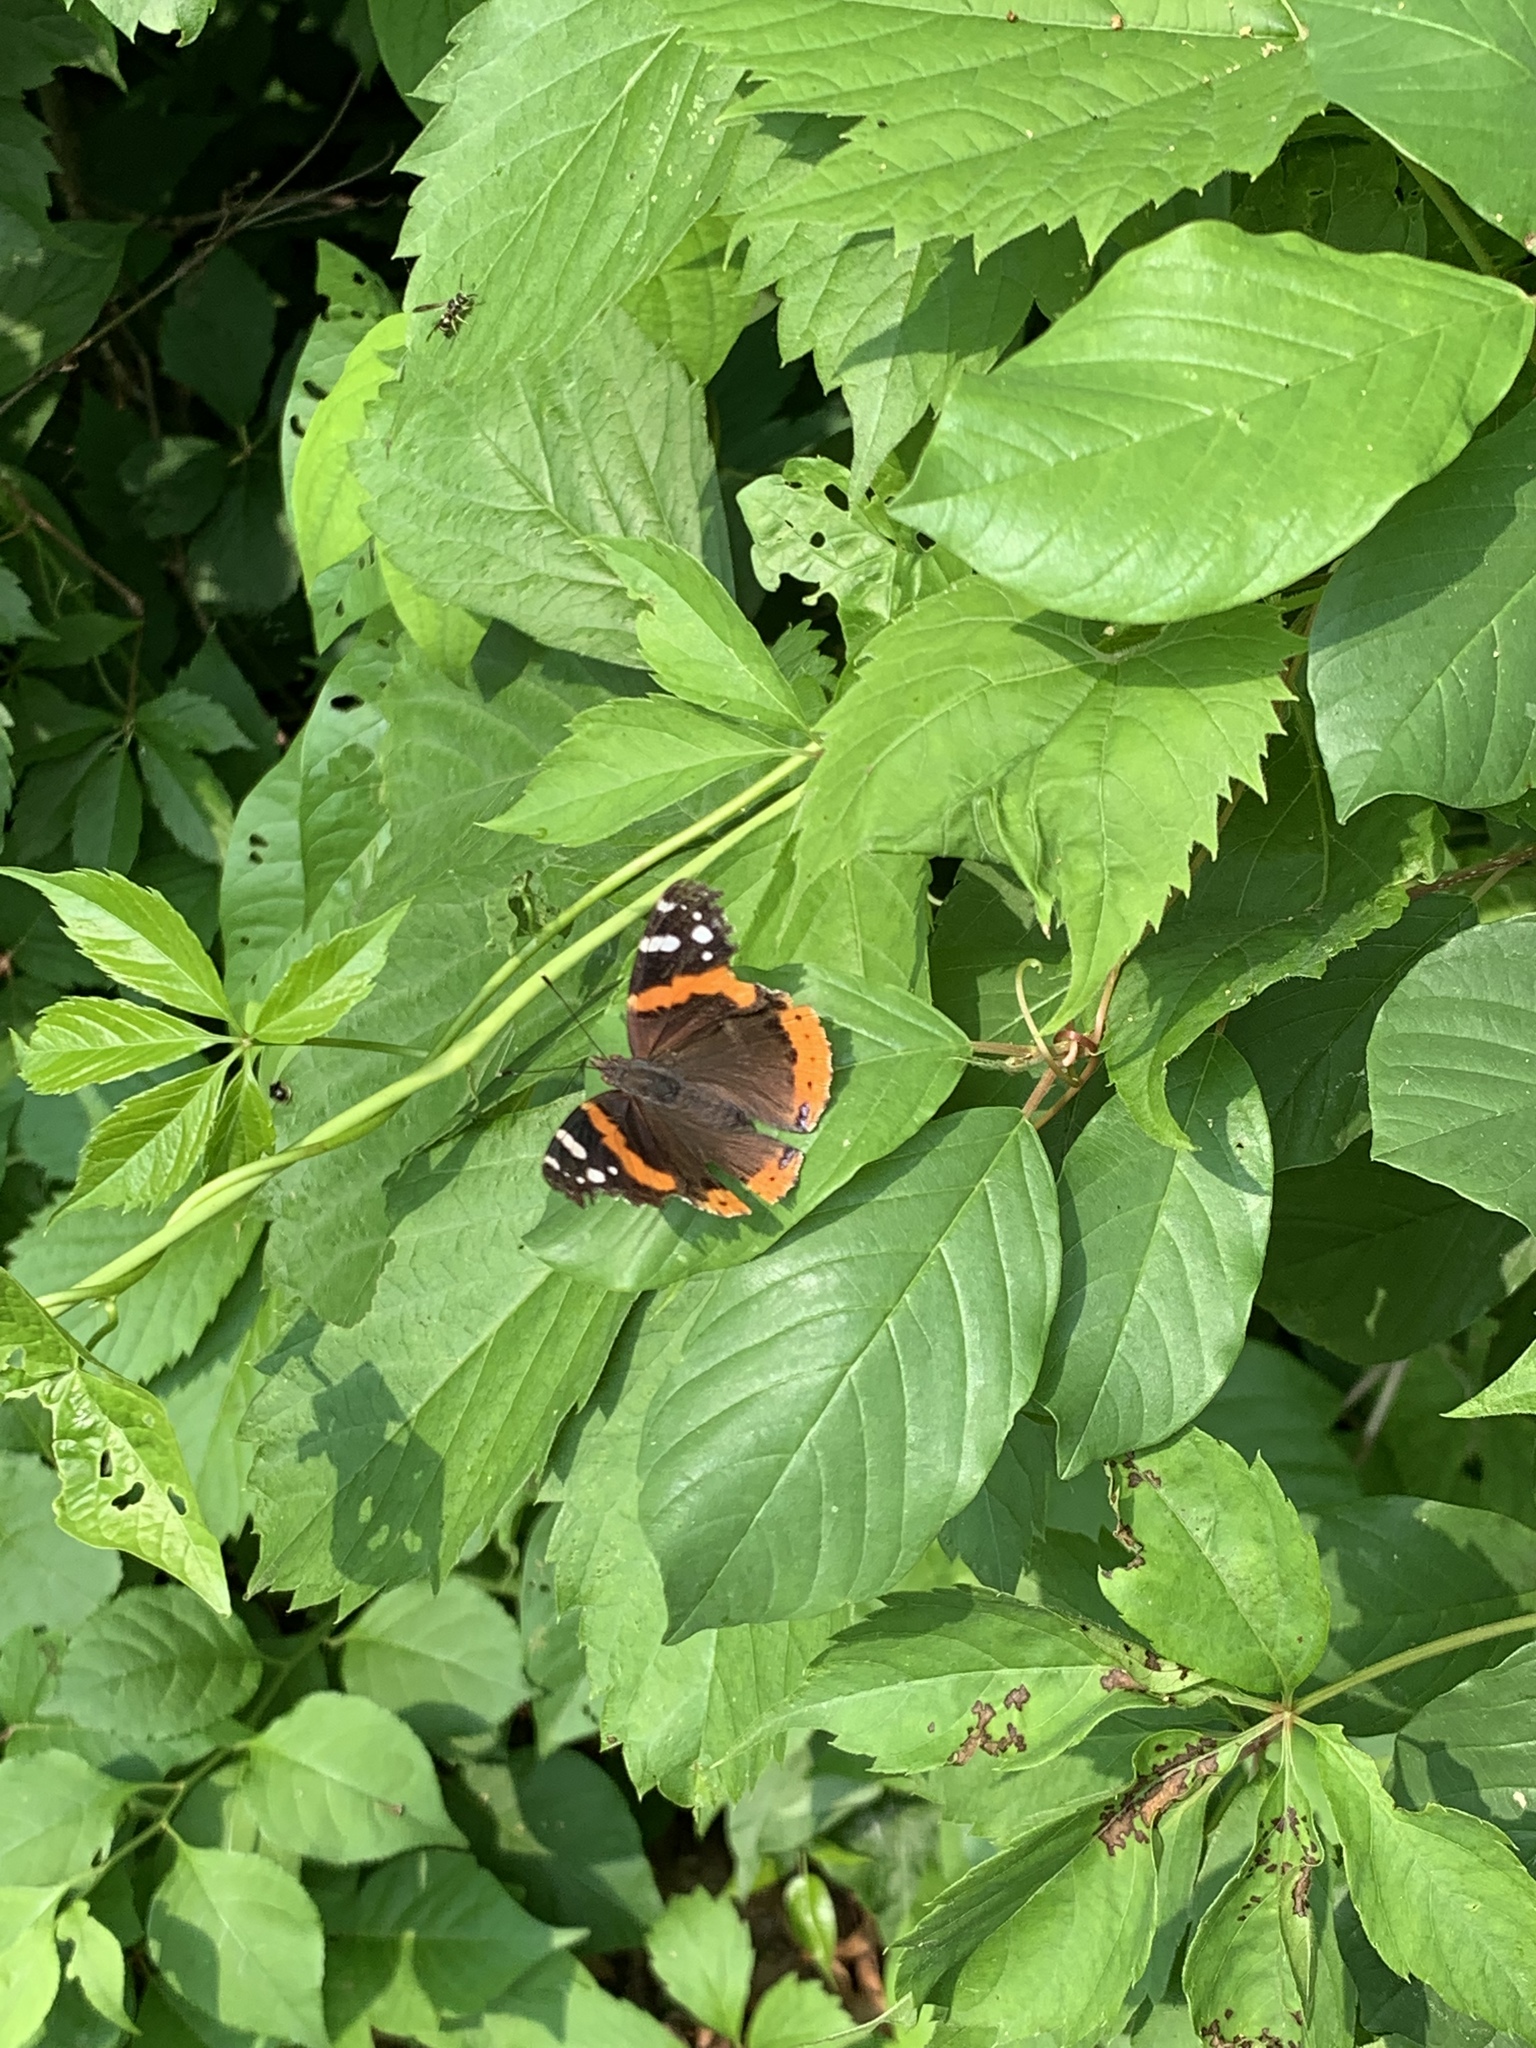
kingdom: Animalia
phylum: Arthropoda
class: Insecta
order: Lepidoptera
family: Nymphalidae
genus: Vanessa
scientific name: Vanessa atalanta
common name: Red admiral
